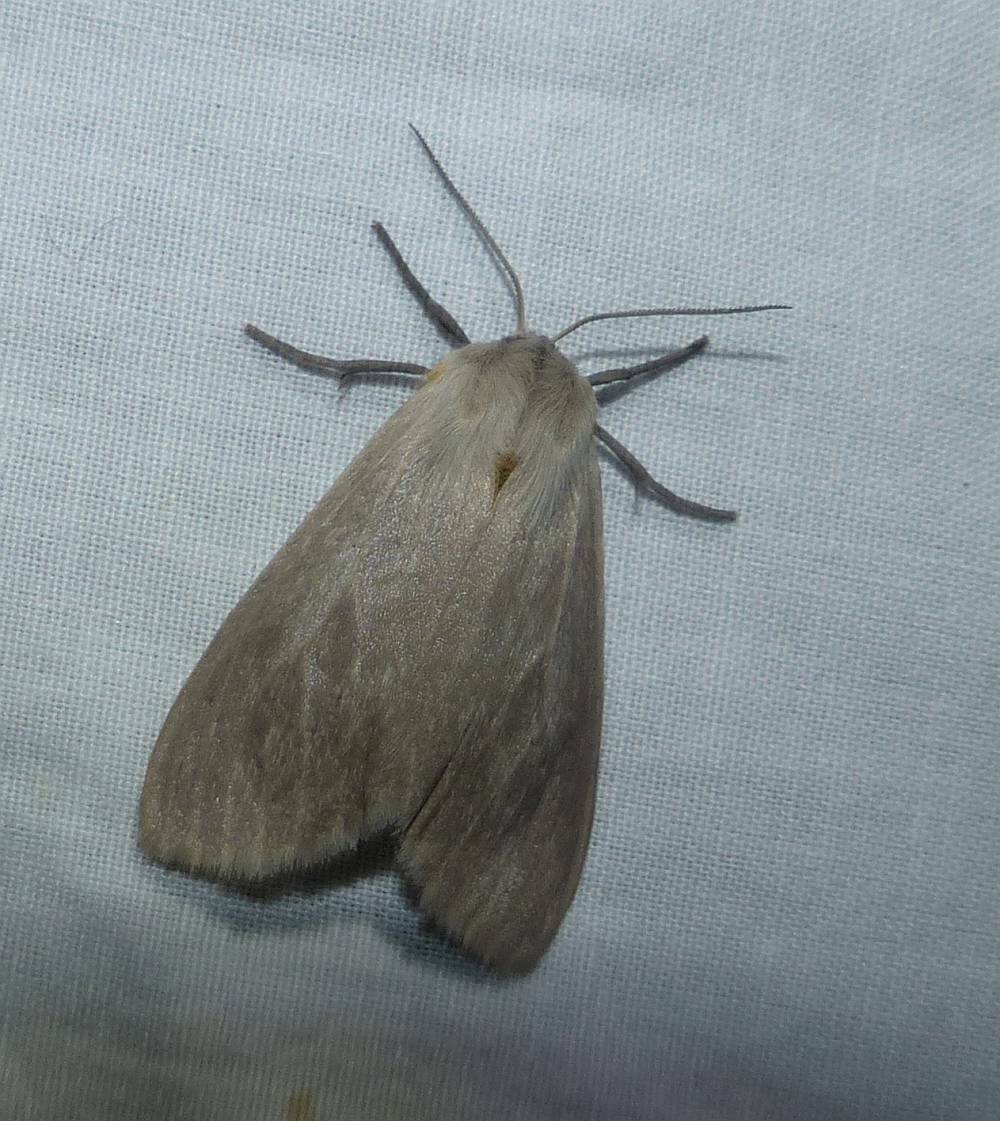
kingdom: Animalia
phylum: Arthropoda
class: Insecta
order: Lepidoptera
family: Erebidae
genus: Euchaetes
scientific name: Euchaetes egle
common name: Milkweed tussock moth
